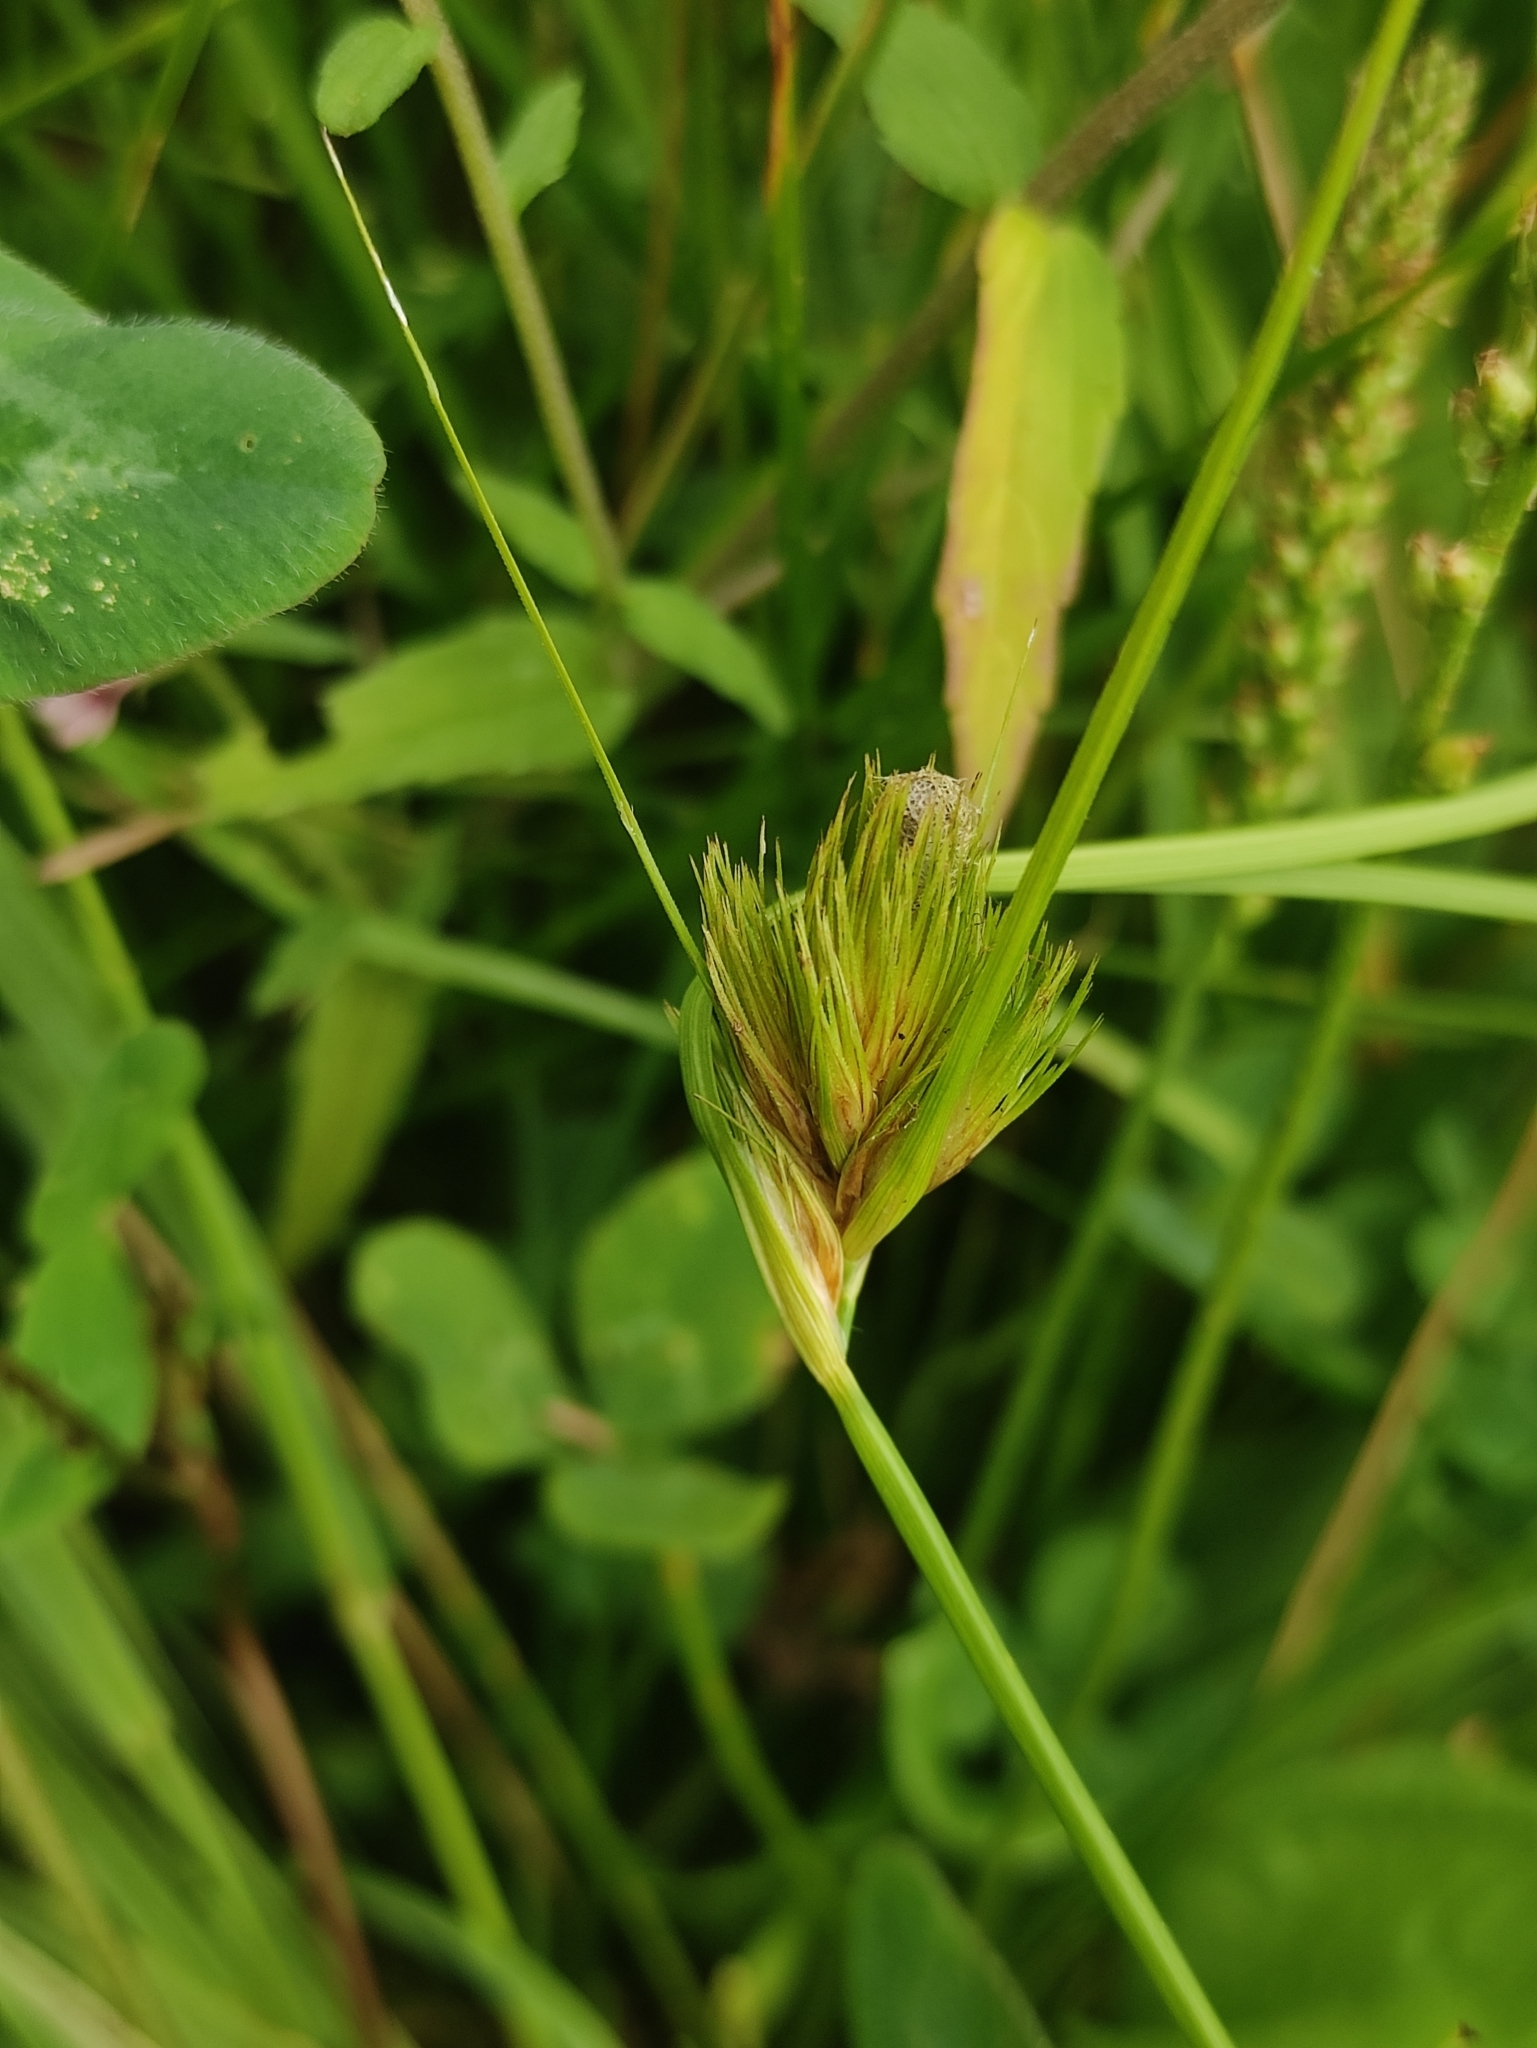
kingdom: Plantae
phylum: Tracheophyta
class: Liliopsida
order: Poales
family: Cyperaceae
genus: Carex
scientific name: Carex bohemica
